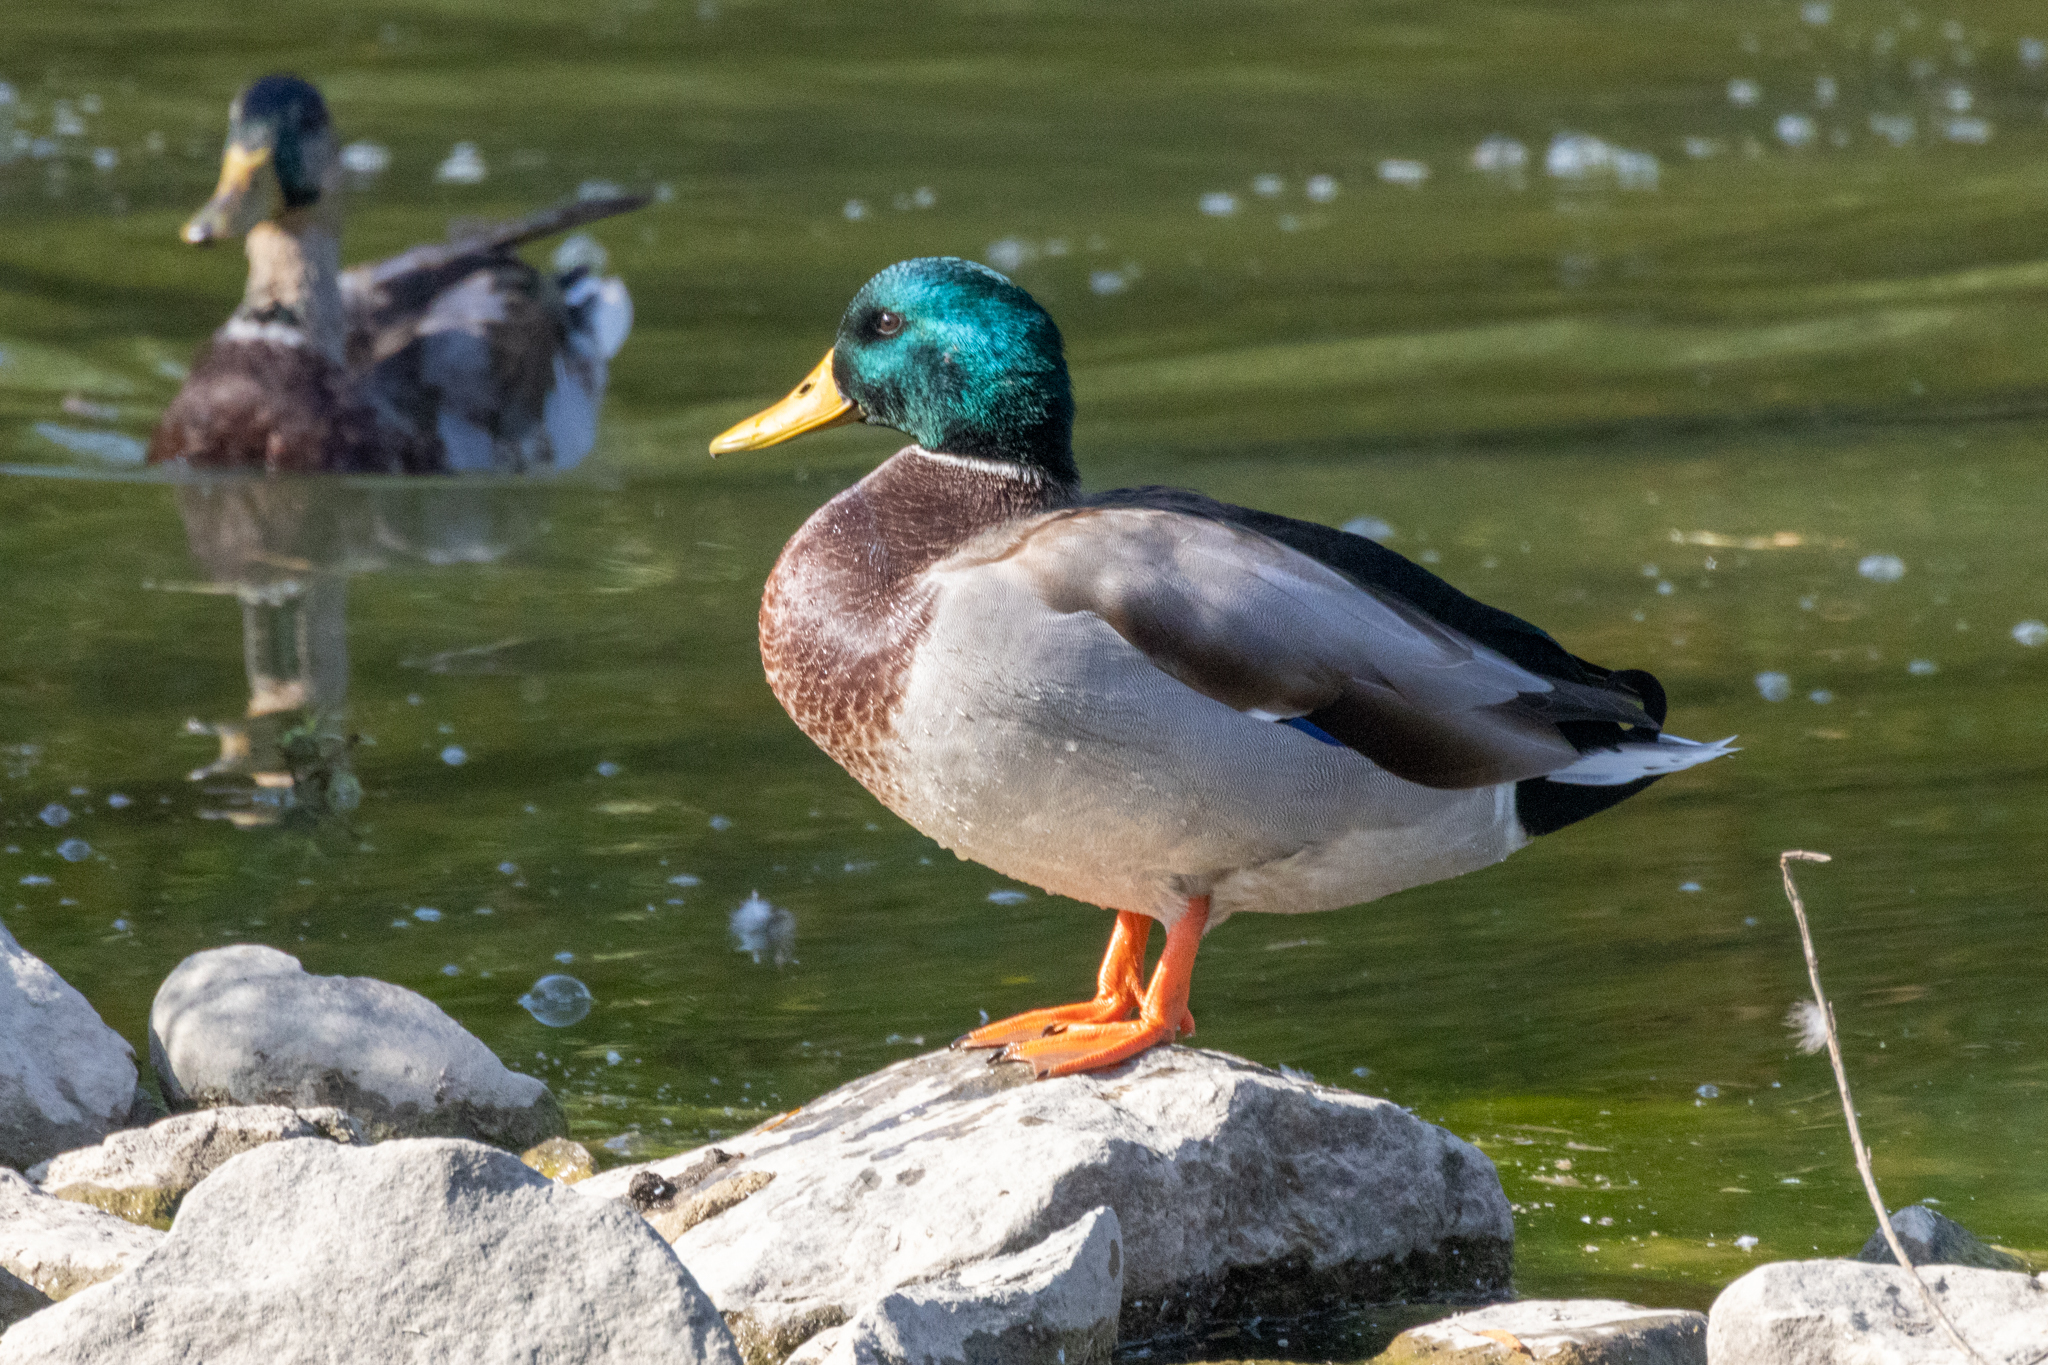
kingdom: Animalia
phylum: Chordata
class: Aves
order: Anseriformes
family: Anatidae
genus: Anas
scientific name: Anas platyrhynchos
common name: Mallard
